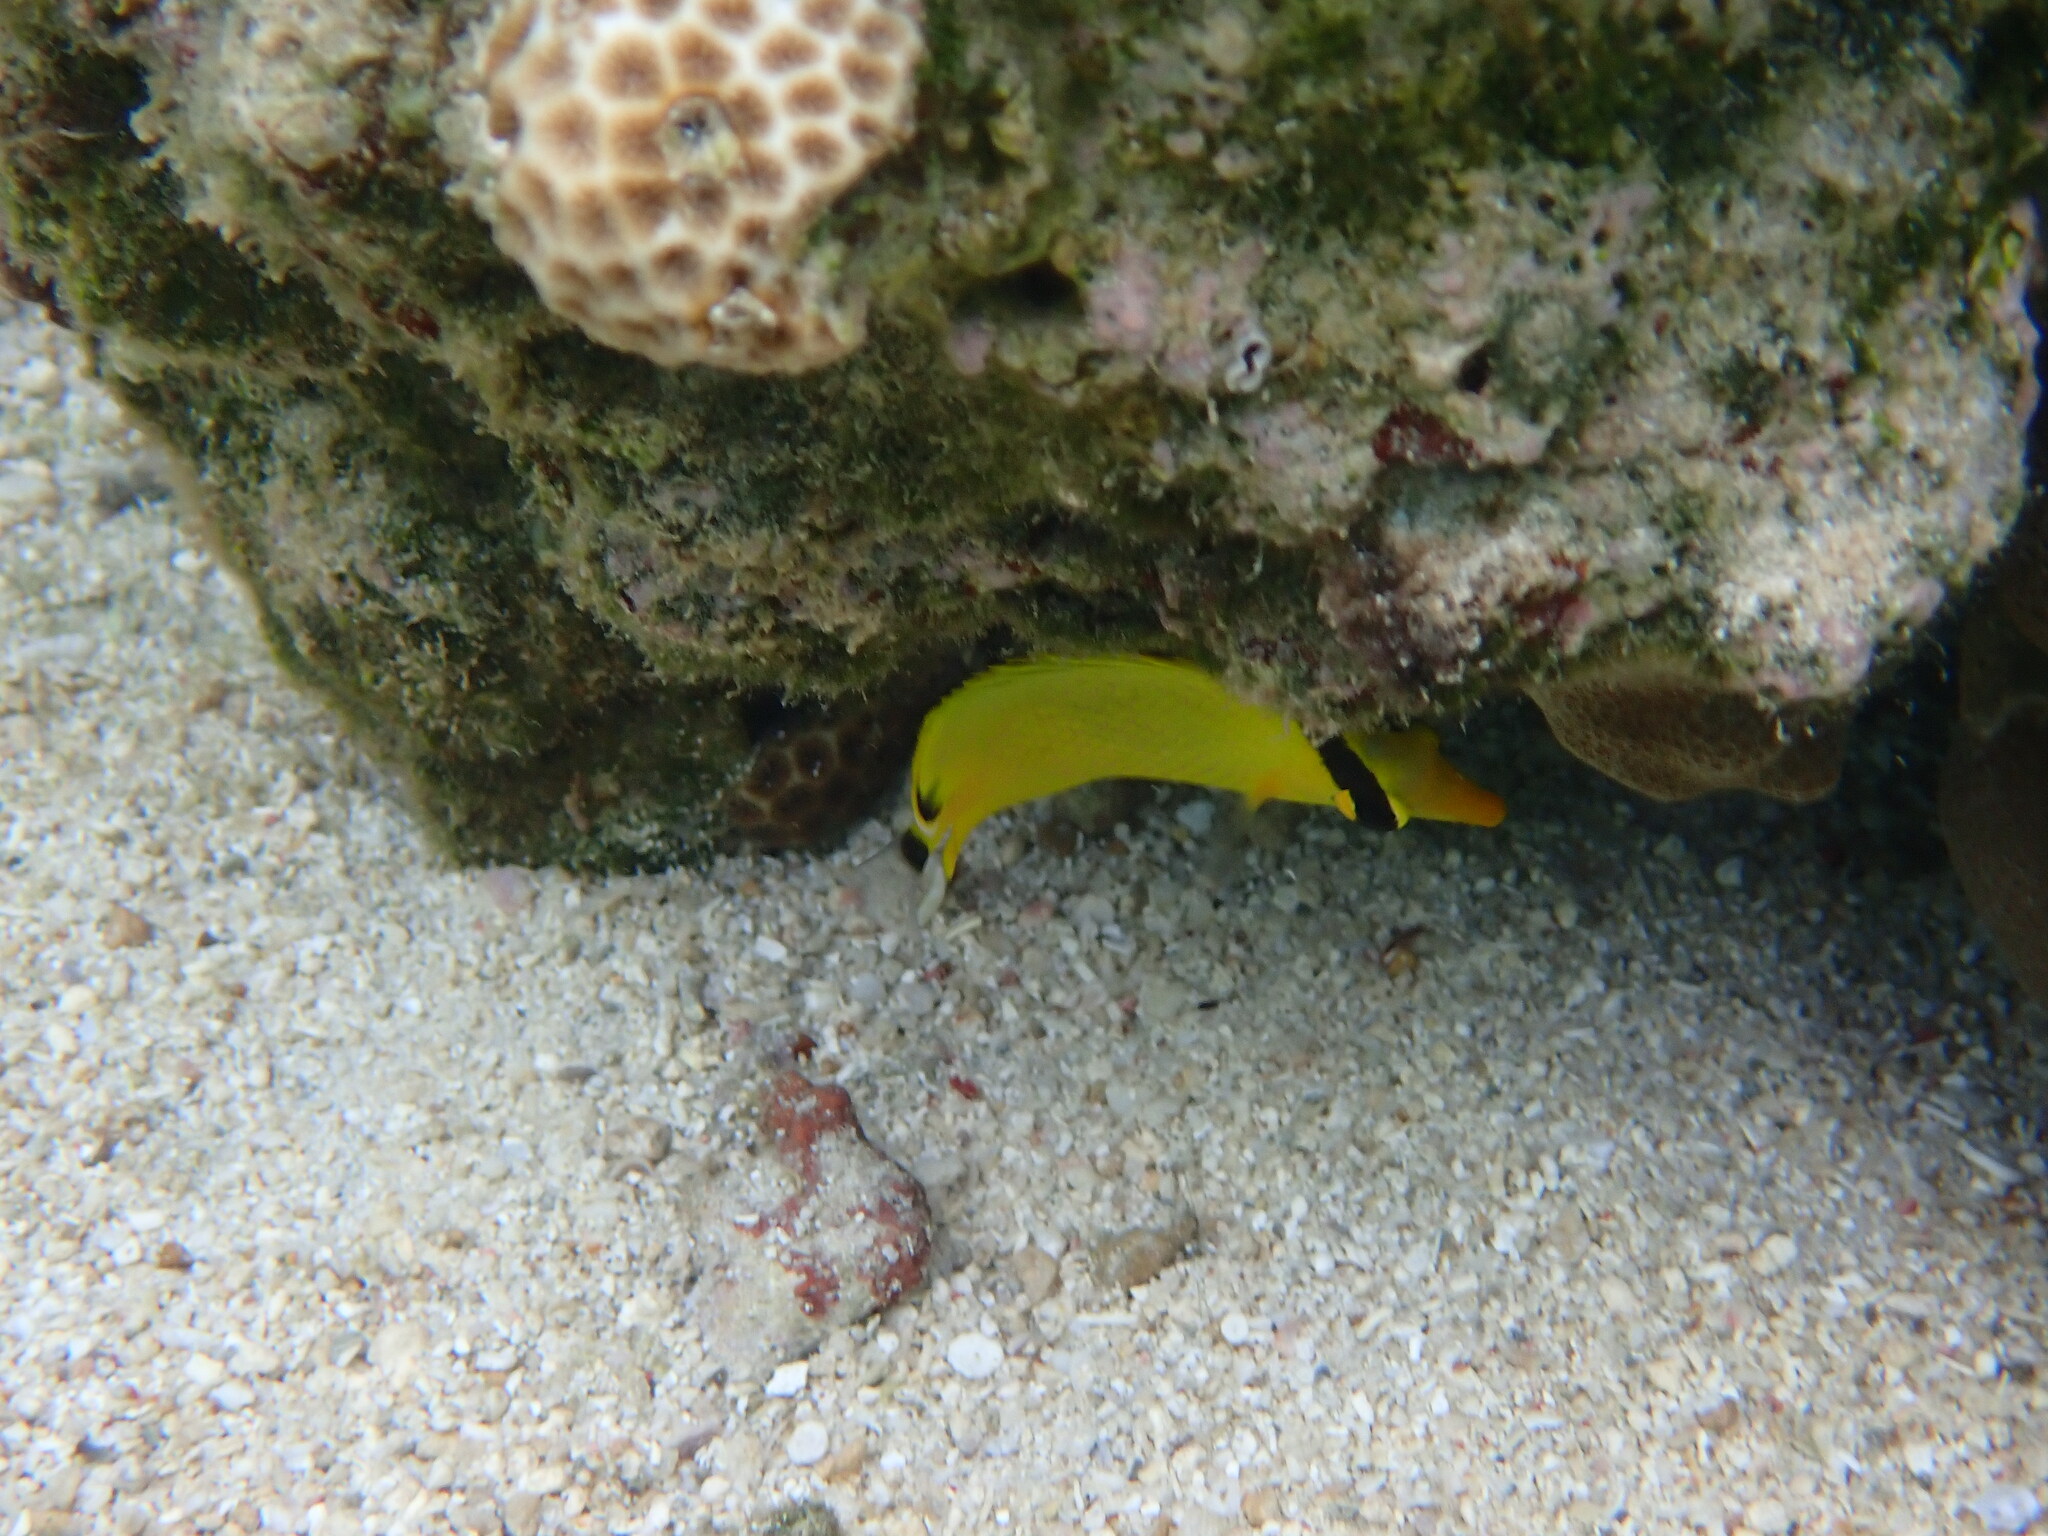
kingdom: Animalia
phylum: Chordata
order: Perciformes
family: Chaetodontidae
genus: Chaetodon
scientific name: Chaetodon rafflesii
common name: Latticed butterflyfish
